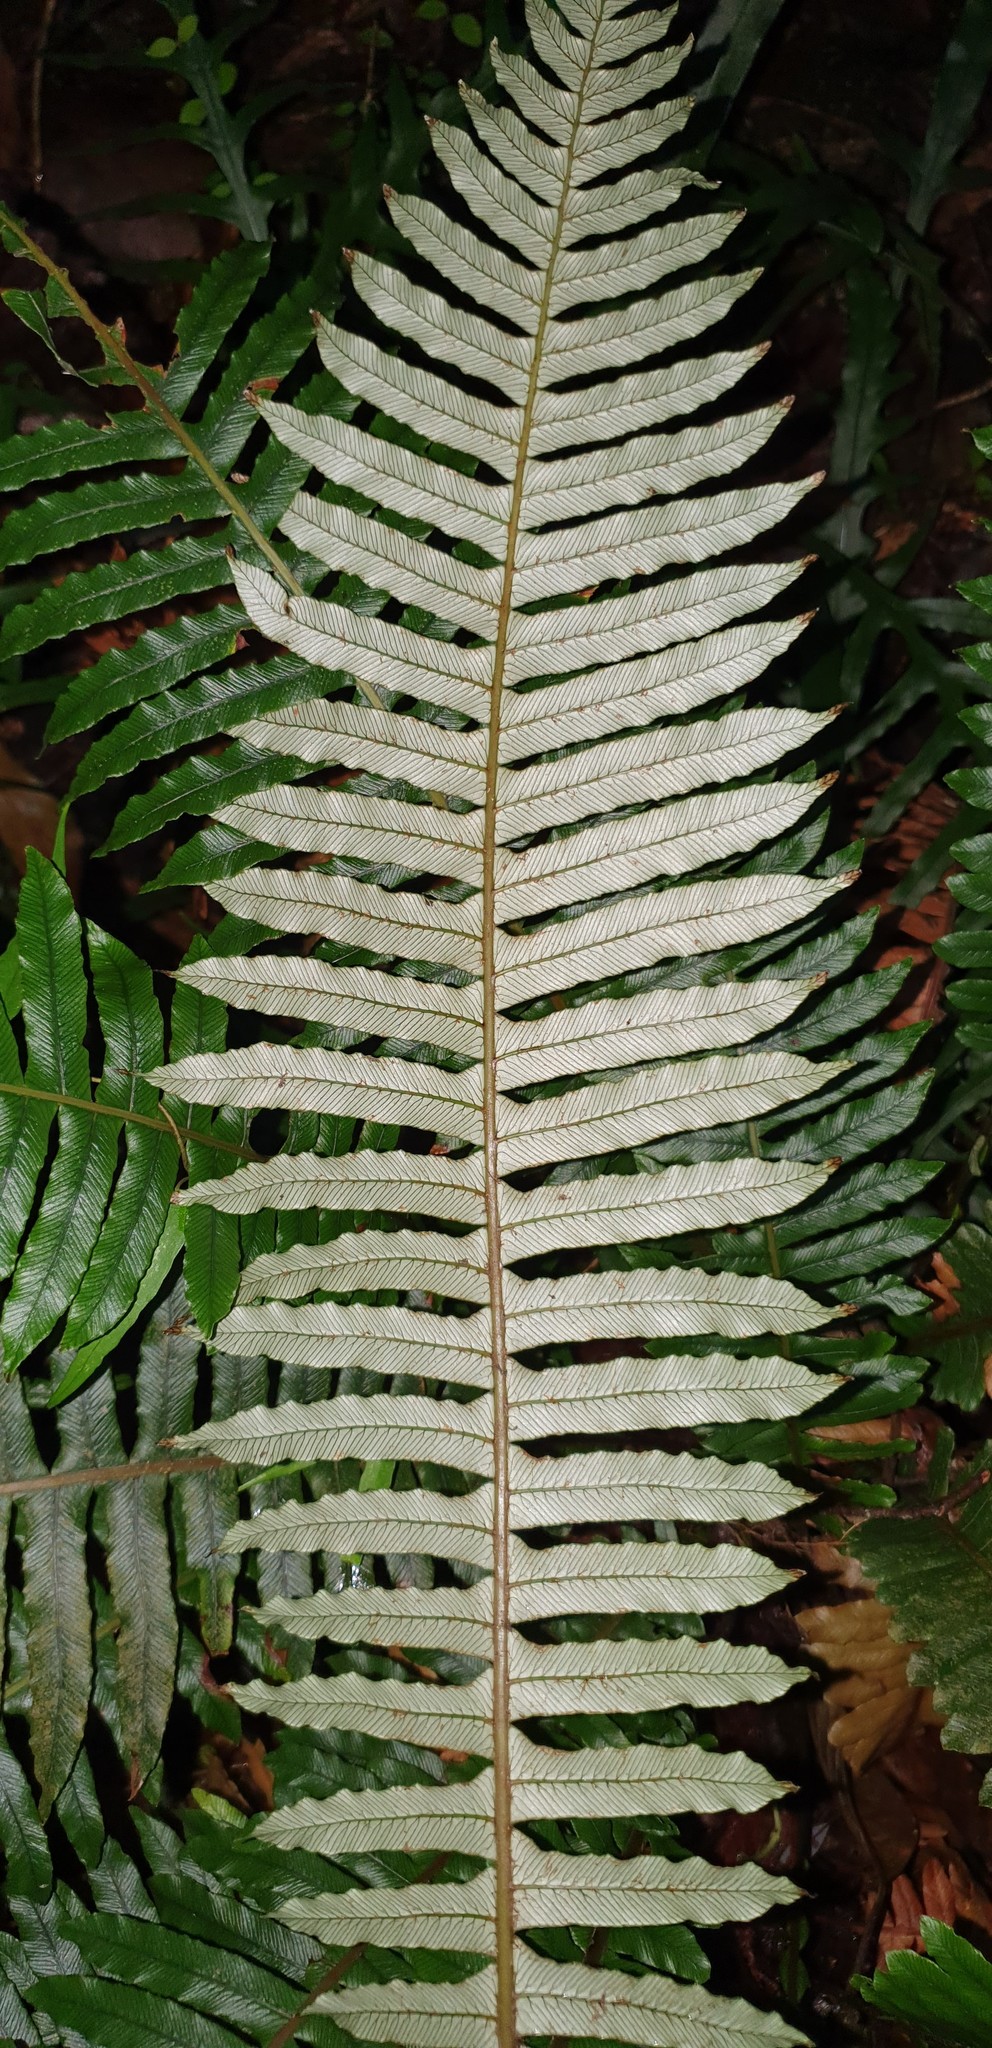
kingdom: Plantae
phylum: Tracheophyta
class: Polypodiopsida
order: Polypodiales
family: Blechnaceae
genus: Lomaria
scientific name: Lomaria discolor
